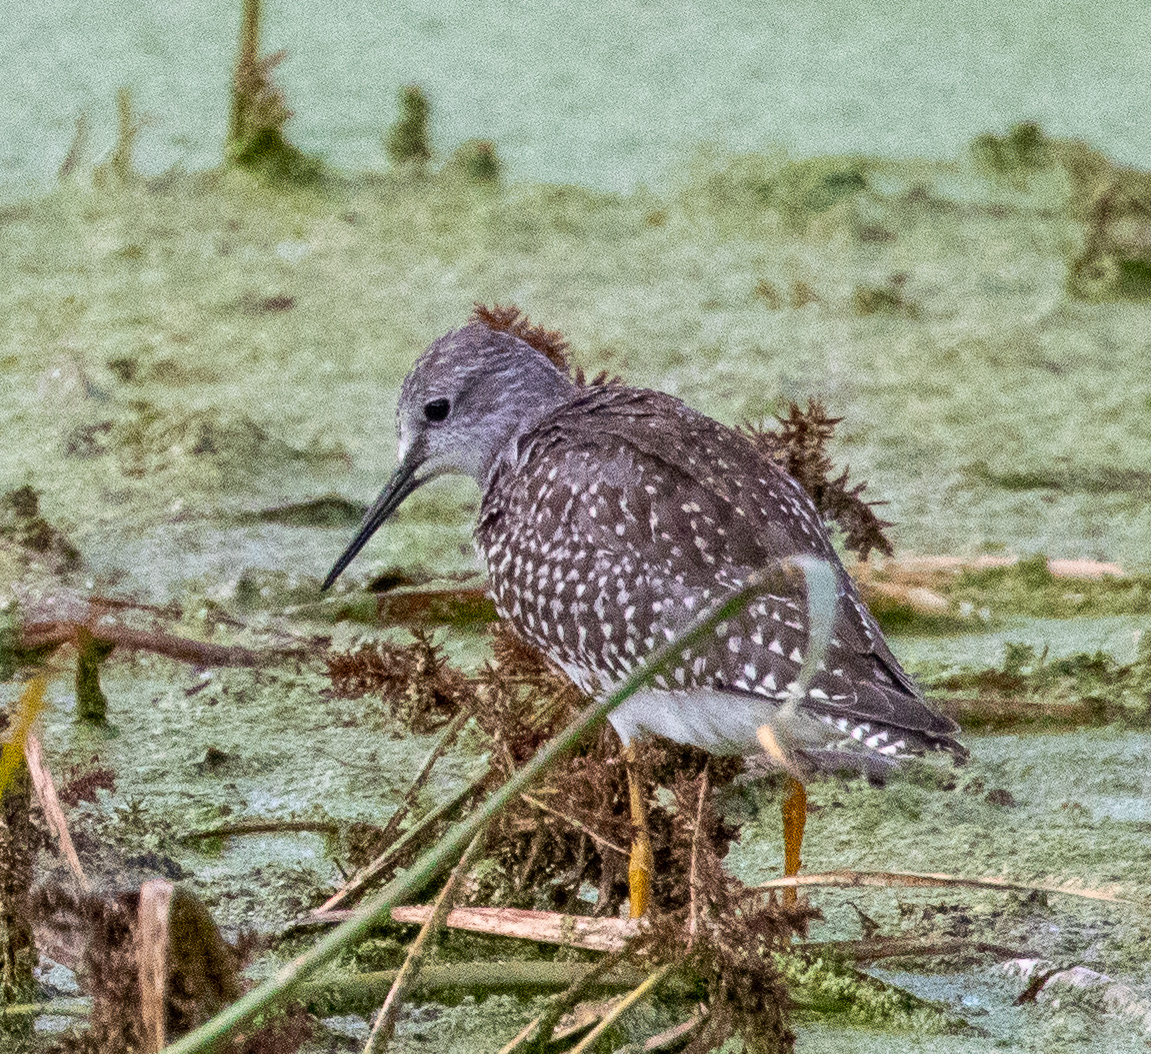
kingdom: Animalia
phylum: Chordata
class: Aves
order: Charadriiformes
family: Scolopacidae
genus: Tringa
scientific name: Tringa flavipes
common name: Lesser yellowlegs
